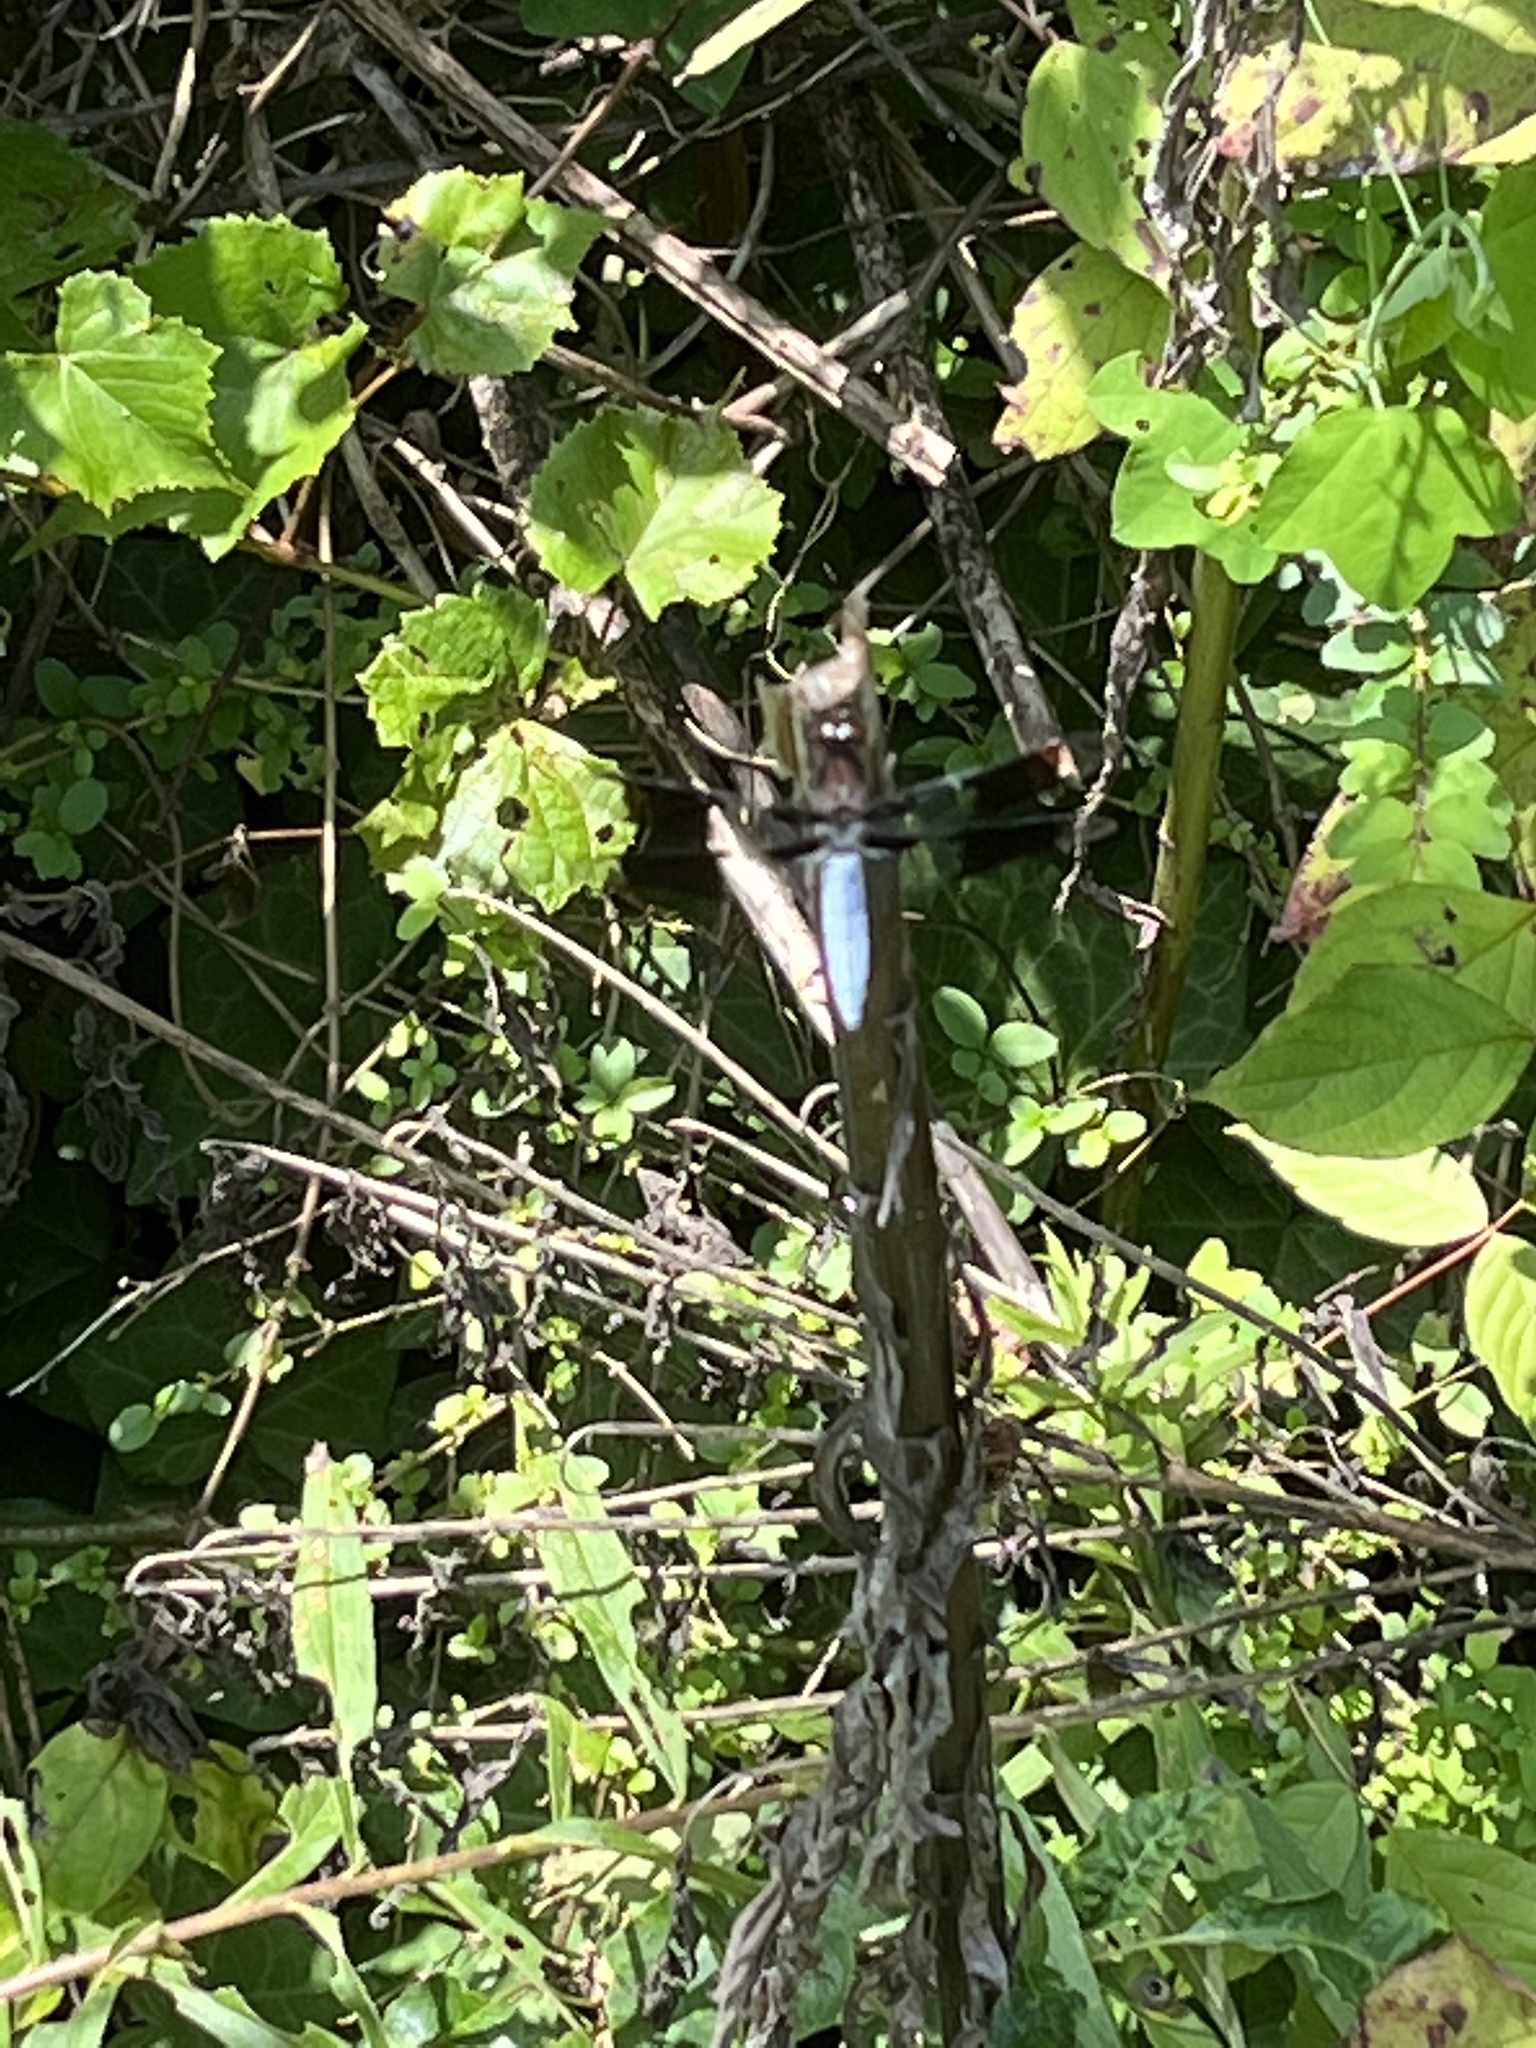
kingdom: Animalia
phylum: Arthropoda
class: Insecta
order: Odonata
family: Libellulidae
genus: Plathemis
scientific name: Plathemis lydia
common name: Common whitetail
